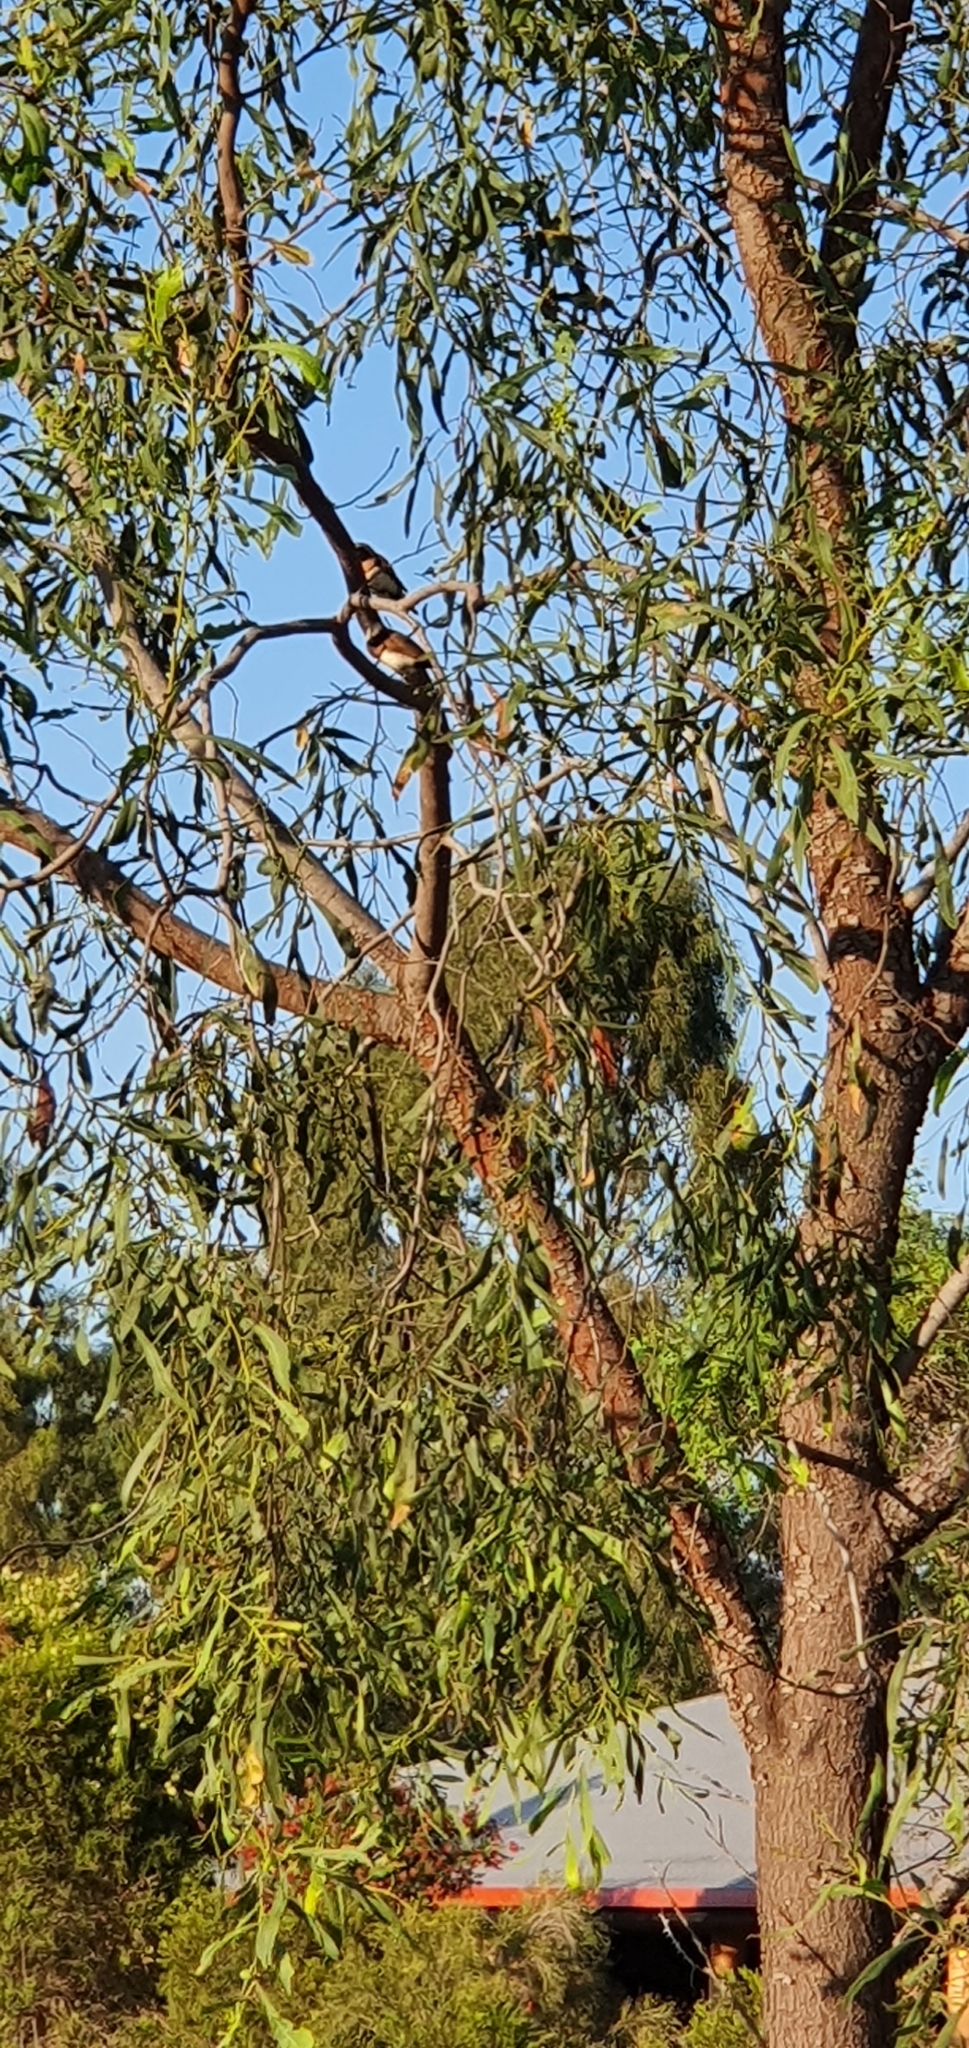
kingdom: Animalia
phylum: Chordata
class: Aves
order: Passeriformes
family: Estrildidae
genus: Lonchura
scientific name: Lonchura castaneothorax
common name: Chestnut-breasted mannikin
